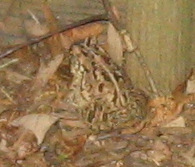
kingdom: Animalia
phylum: Chordata
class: Amphibia
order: Anura
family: Bufonidae
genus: Anaxyrus
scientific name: Anaxyrus fowleri
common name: Fowler's toad
